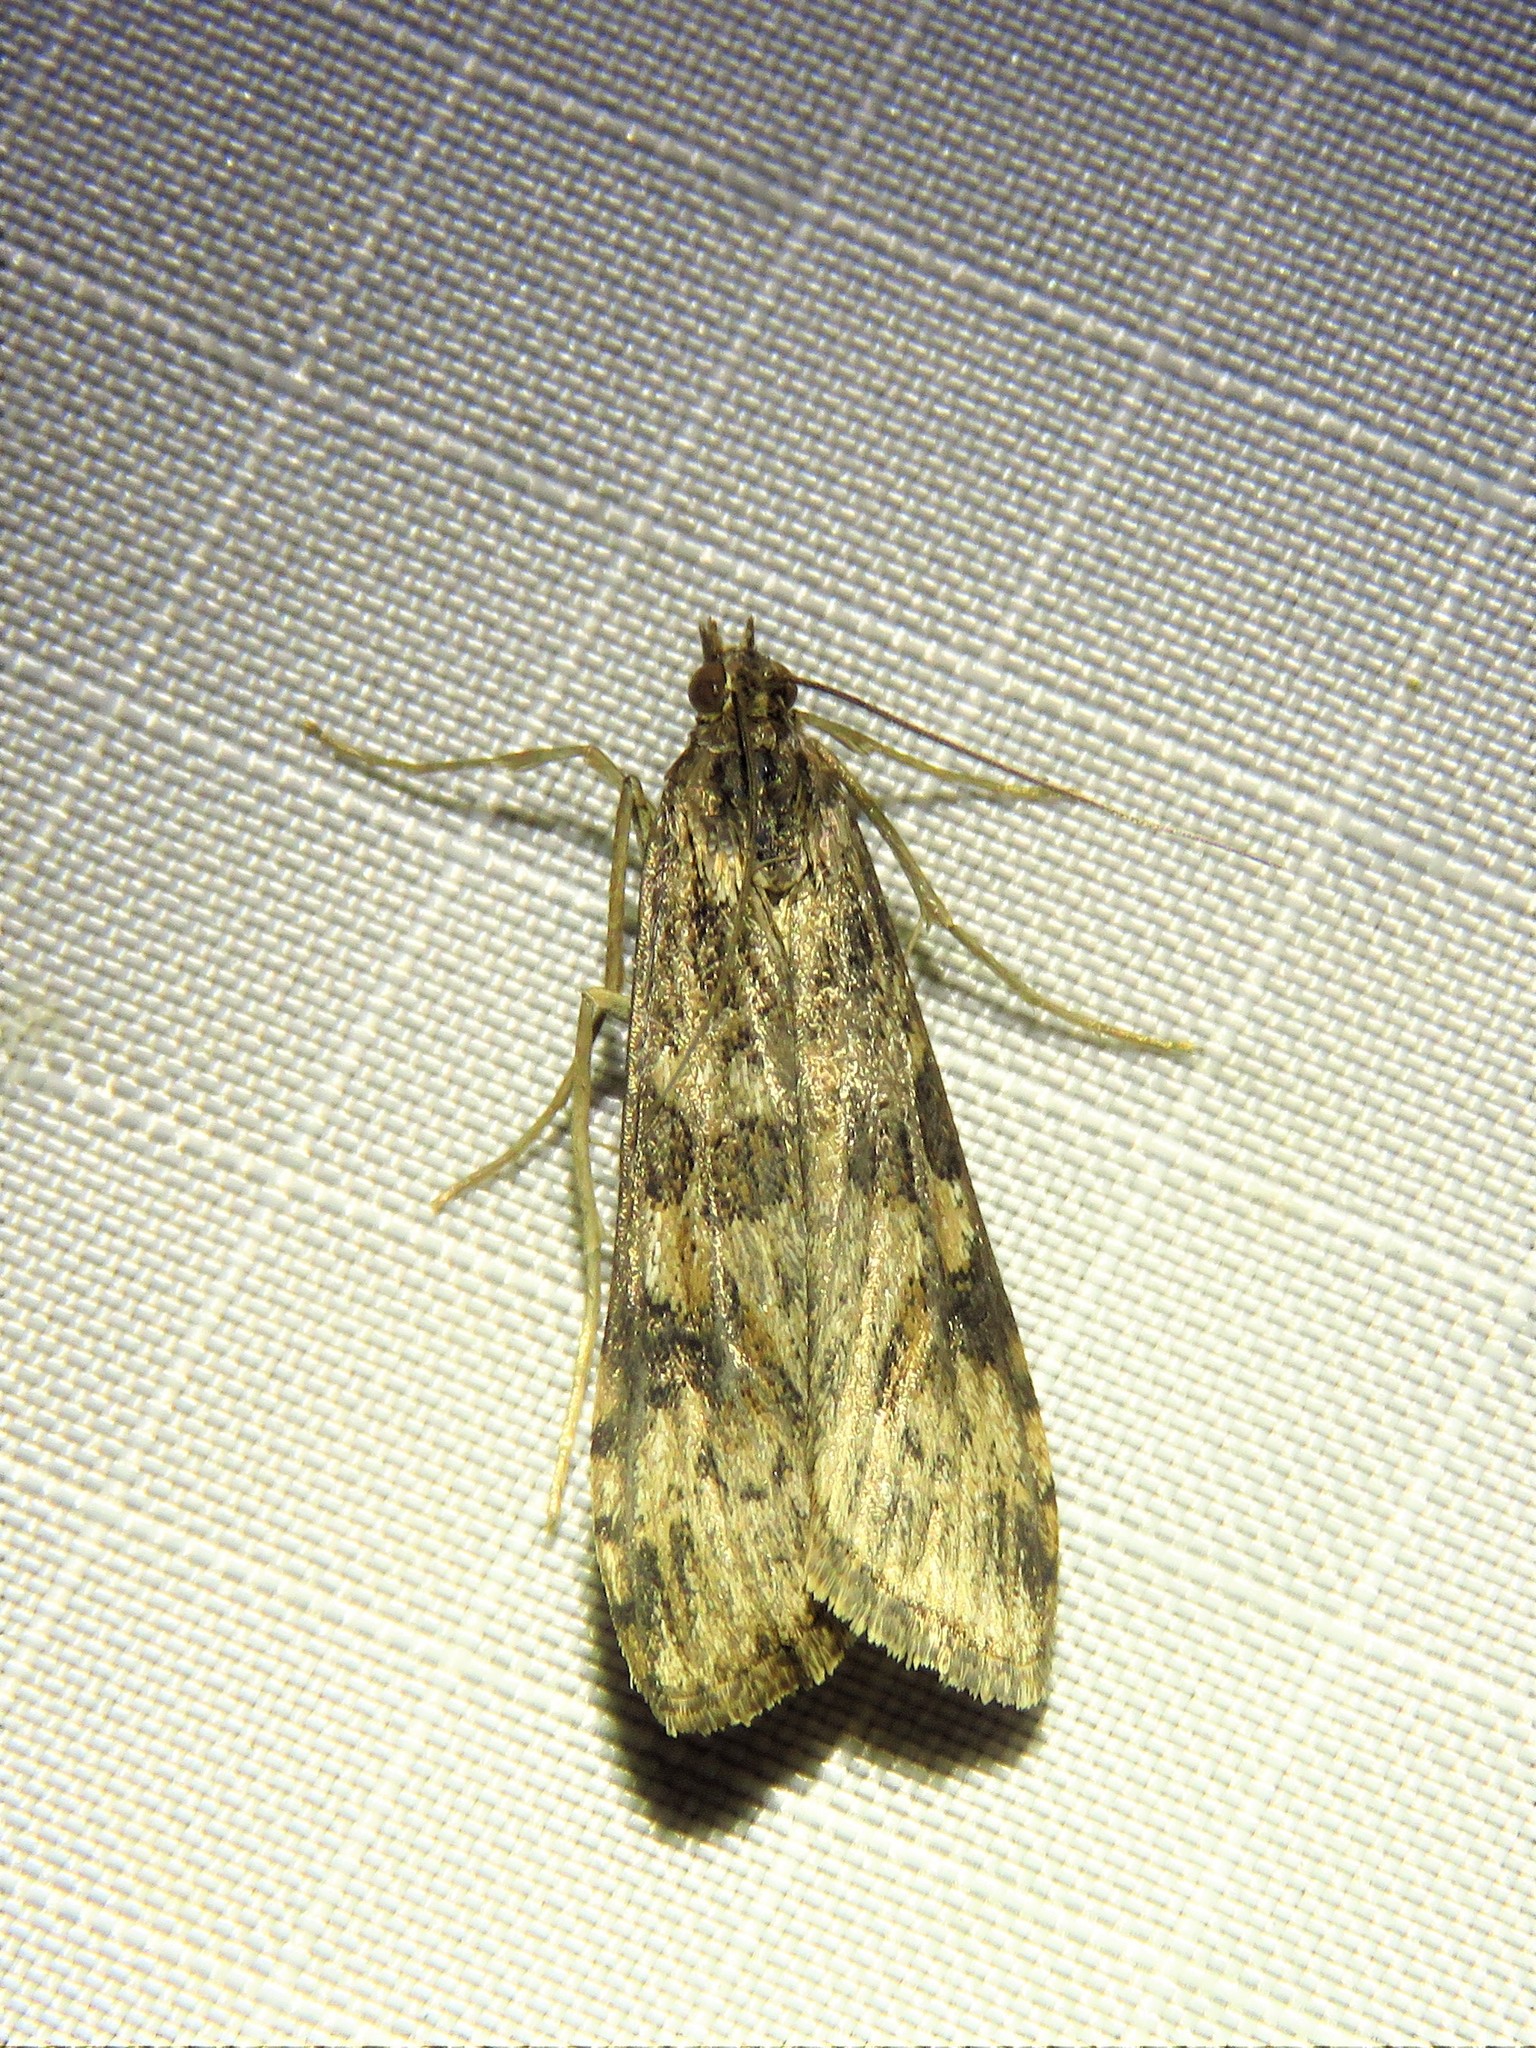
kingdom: Animalia
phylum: Arthropoda
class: Insecta
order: Lepidoptera
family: Crambidae
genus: Nomophila
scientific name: Nomophila nearctica
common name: American rush veneer
